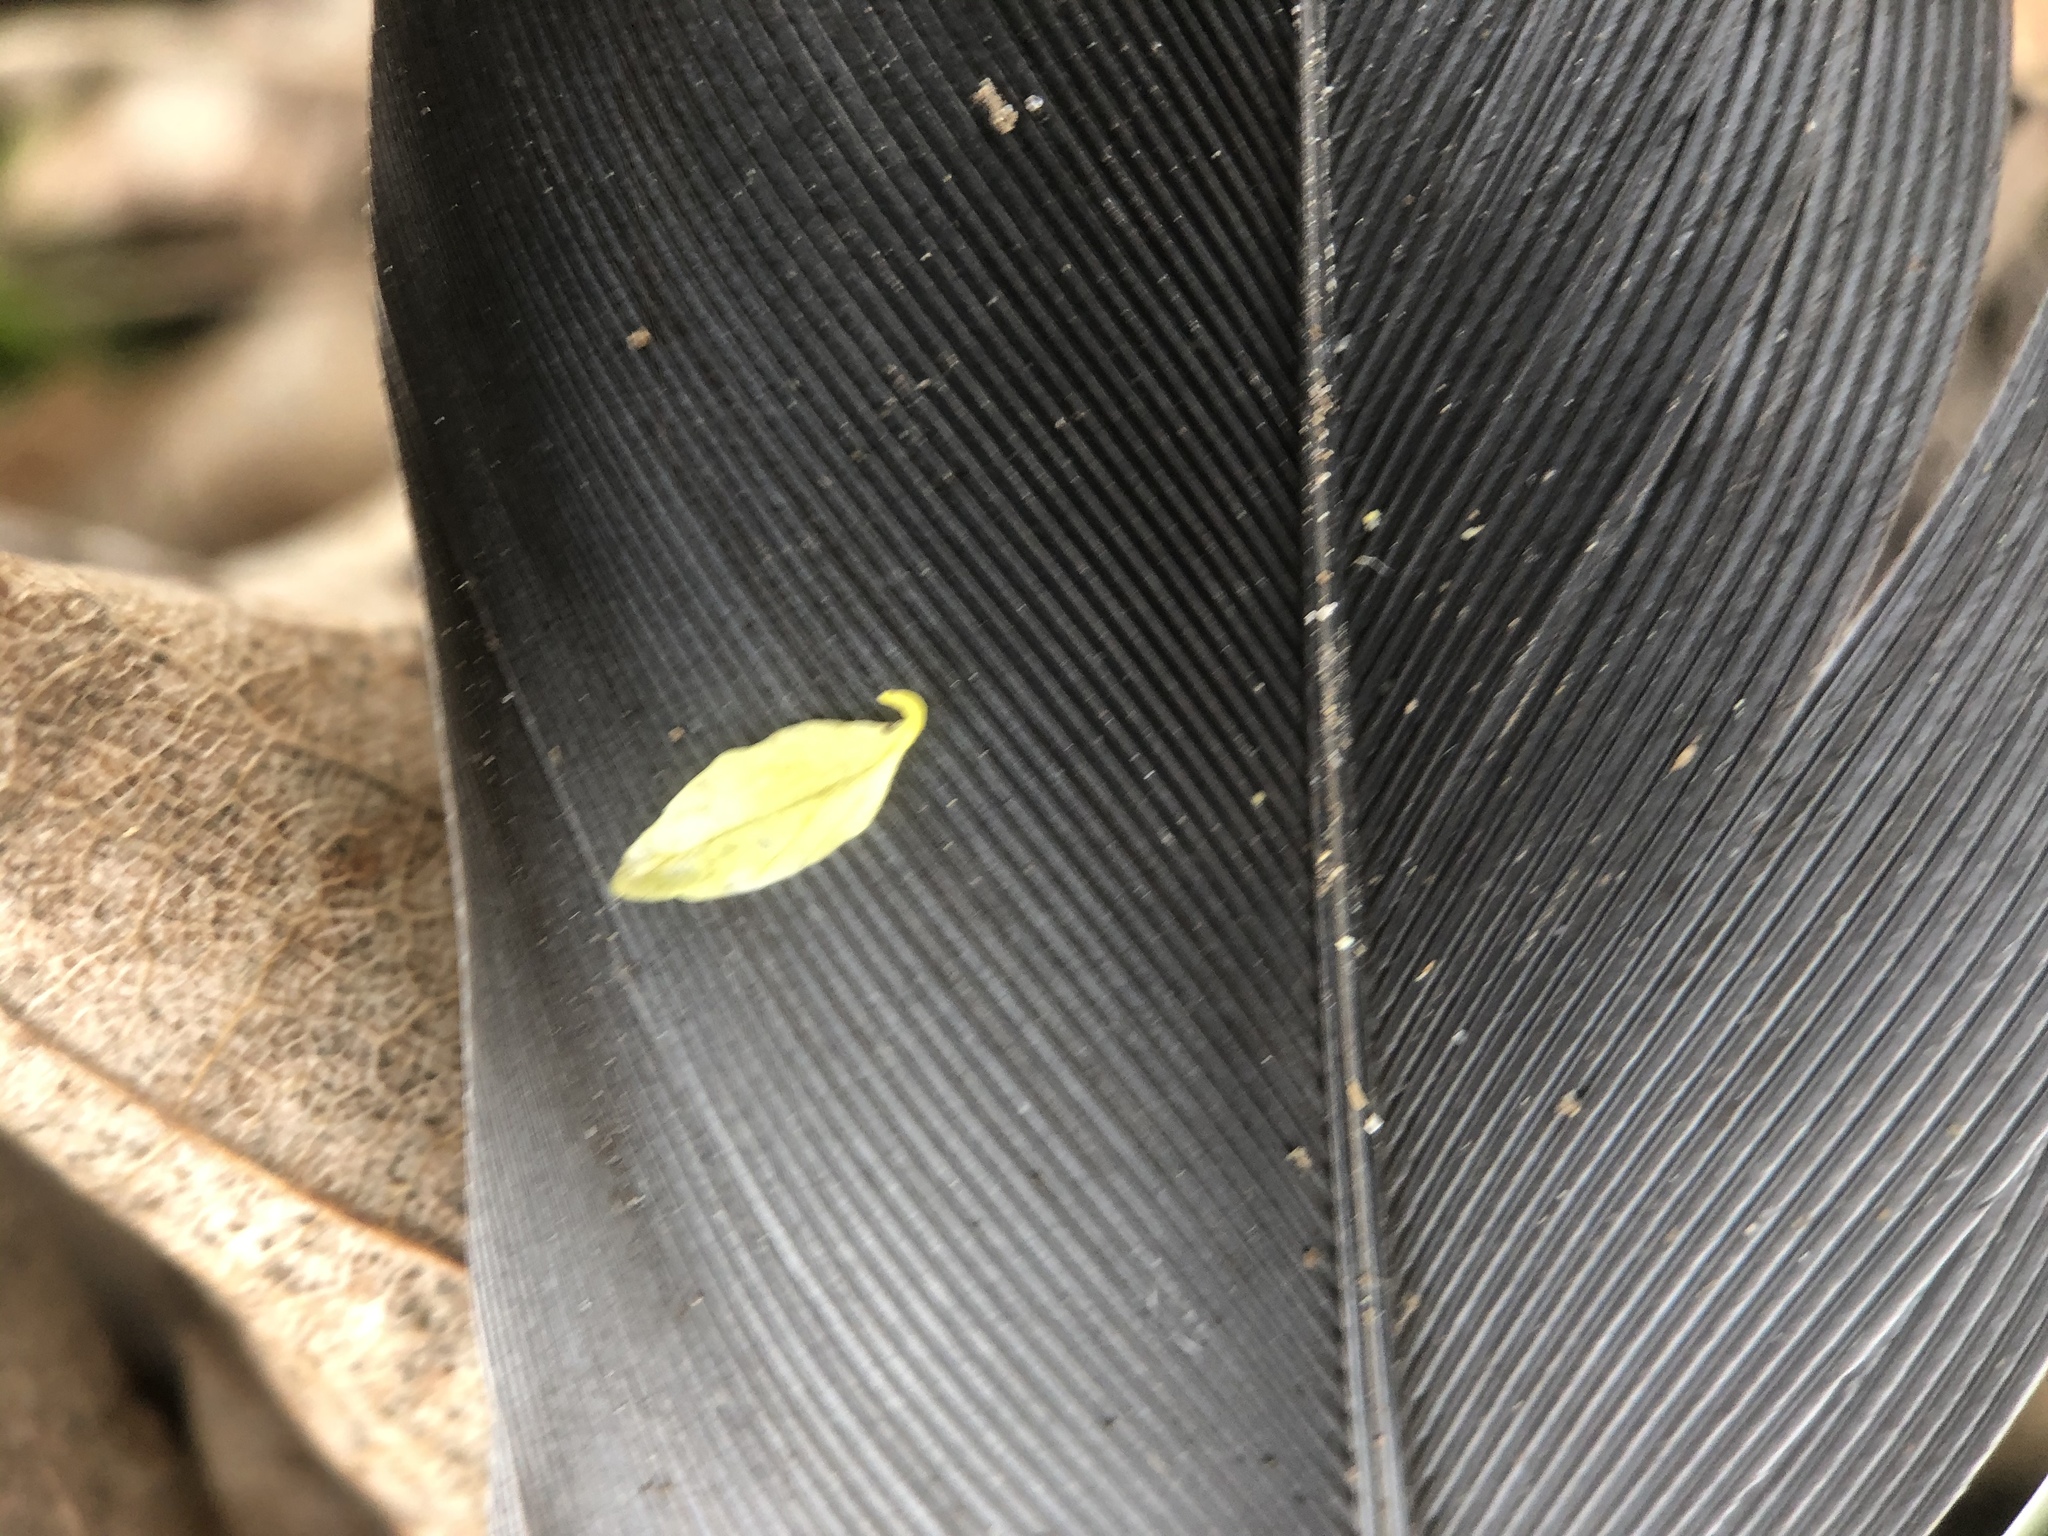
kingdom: Animalia
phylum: Chordata
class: Aves
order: Columbiformes
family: Columbidae
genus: Columba
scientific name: Columba livia
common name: Rock pigeon
